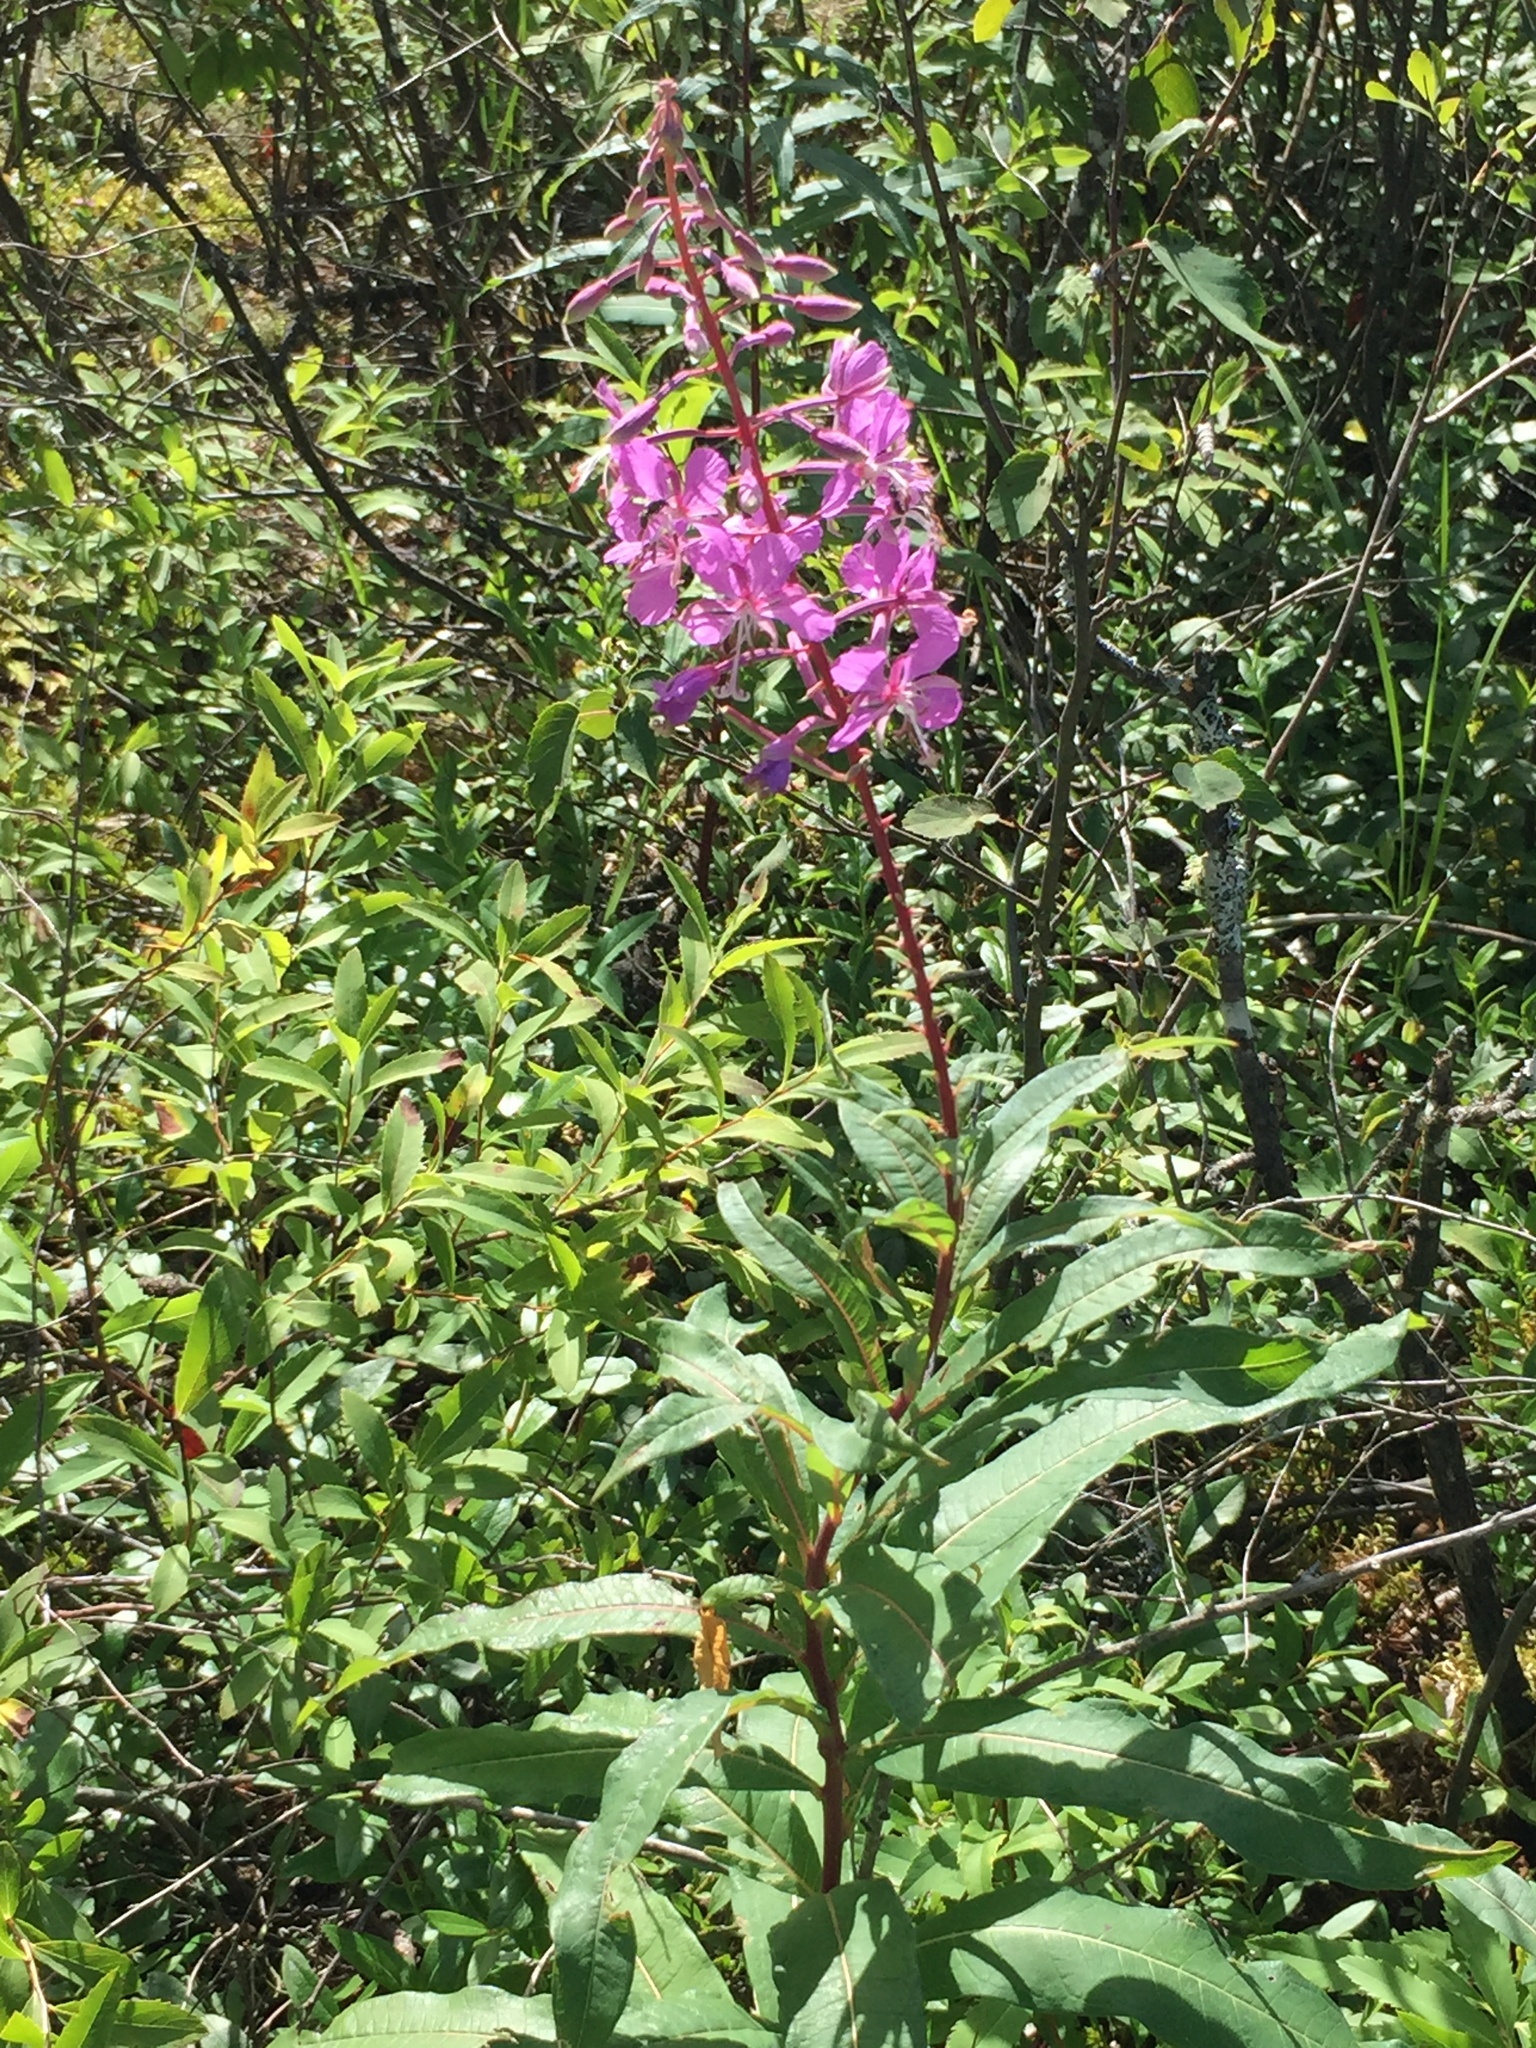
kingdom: Plantae
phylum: Tracheophyta
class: Magnoliopsida
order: Myrtales
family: Onagraceae
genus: Chamaenerion
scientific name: Chamaenerion angustifolium
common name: Fireweed
